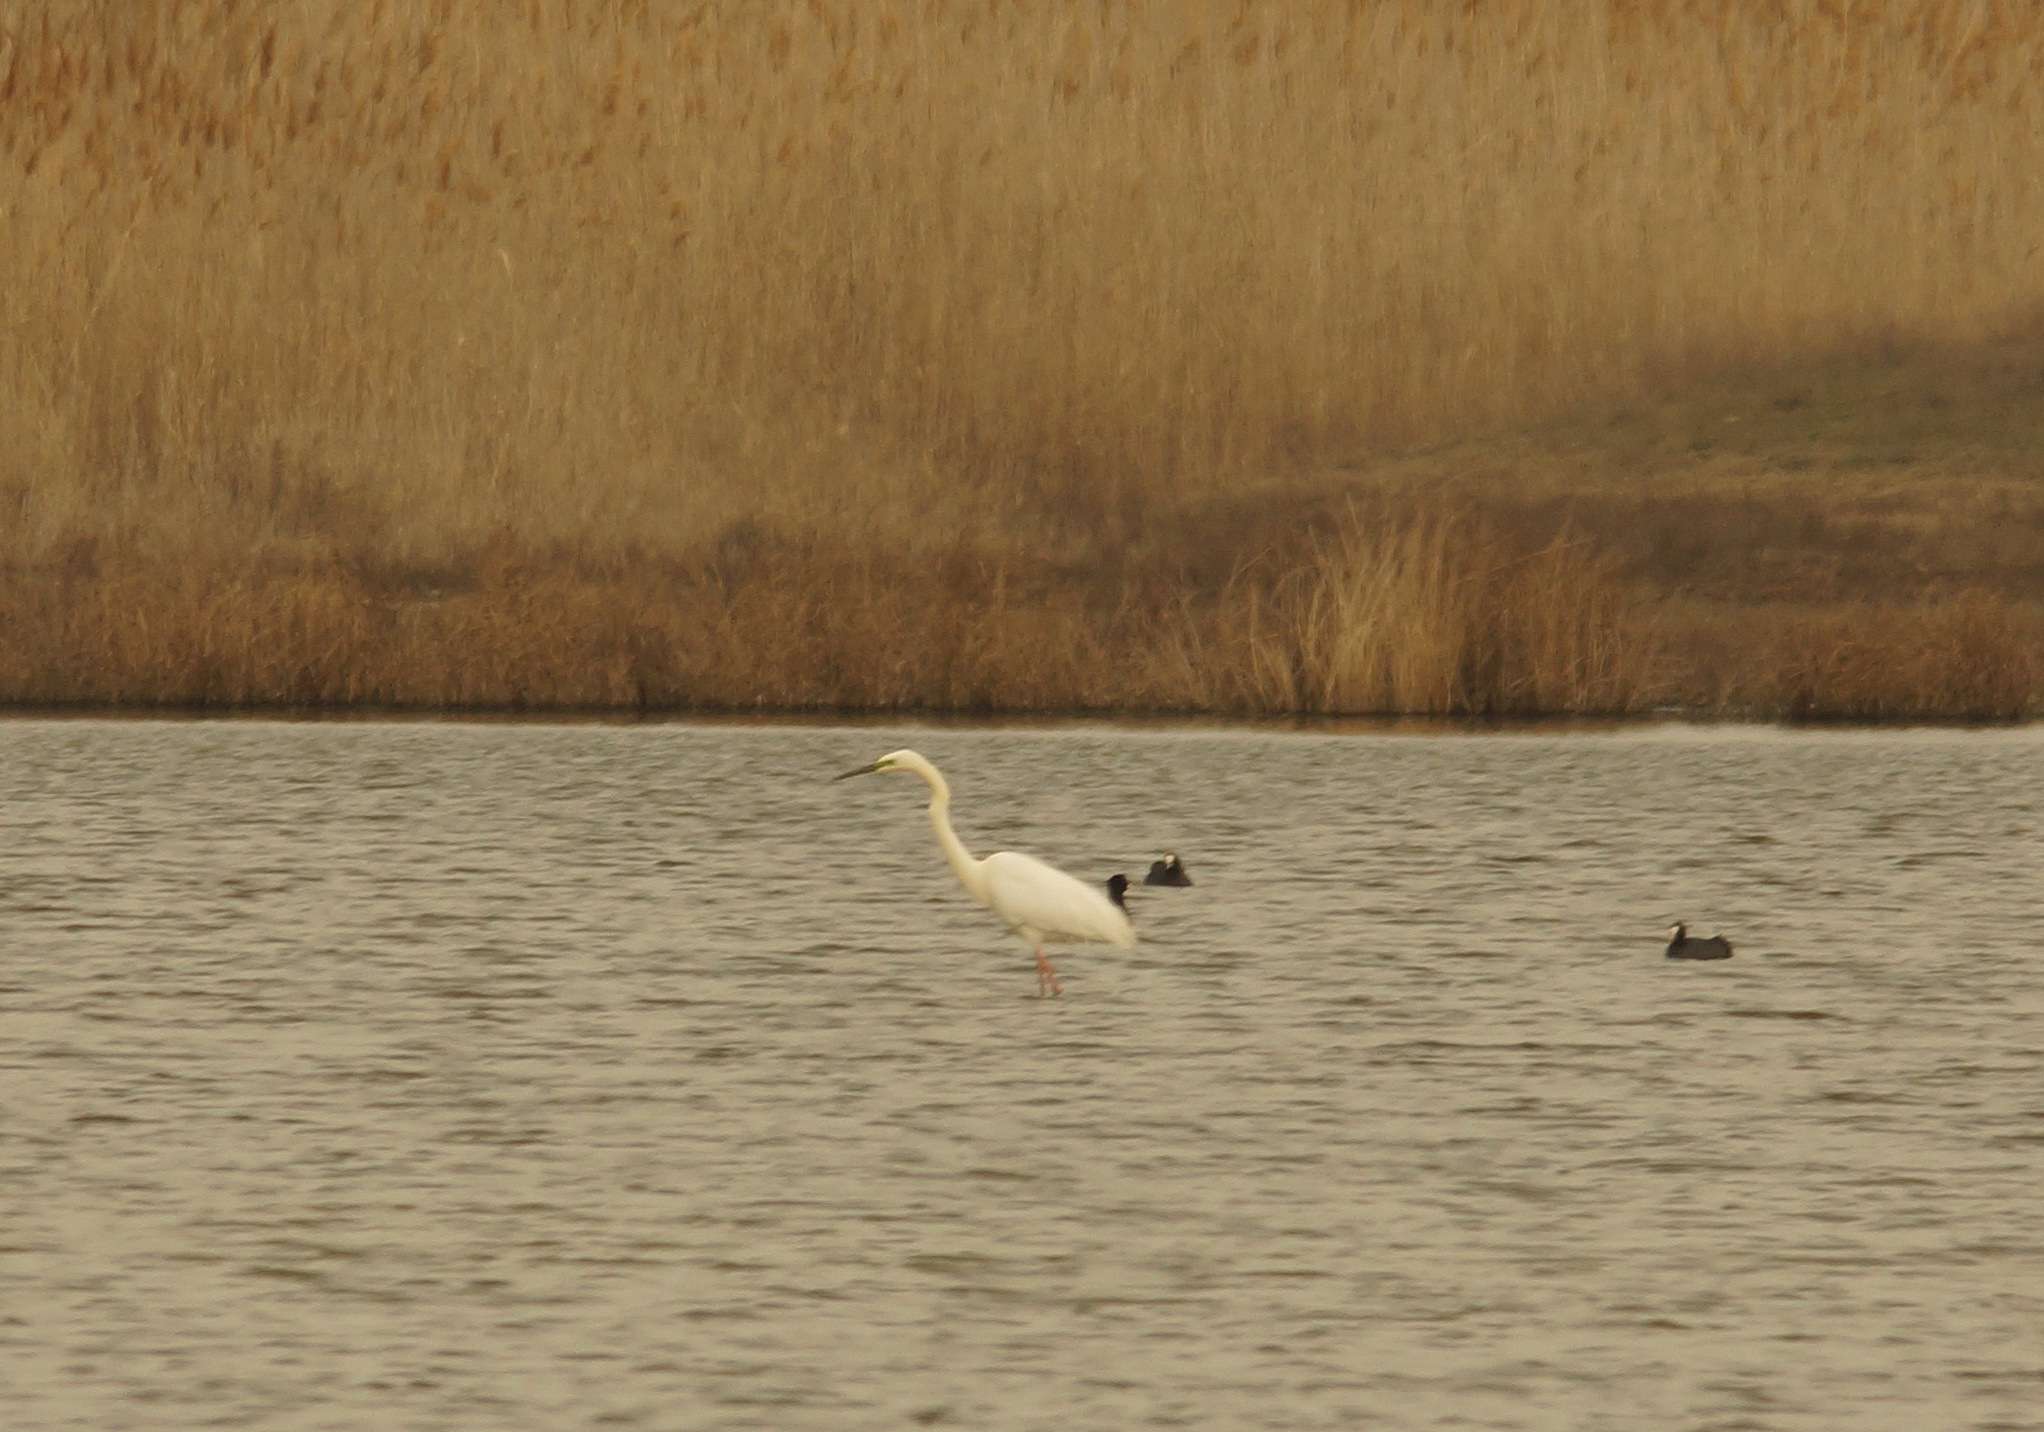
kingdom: Animalia
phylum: Chordata
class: Aves
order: Pelecaniformes
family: Ardeidae
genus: Ardea
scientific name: Ardea alba
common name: Great egret
